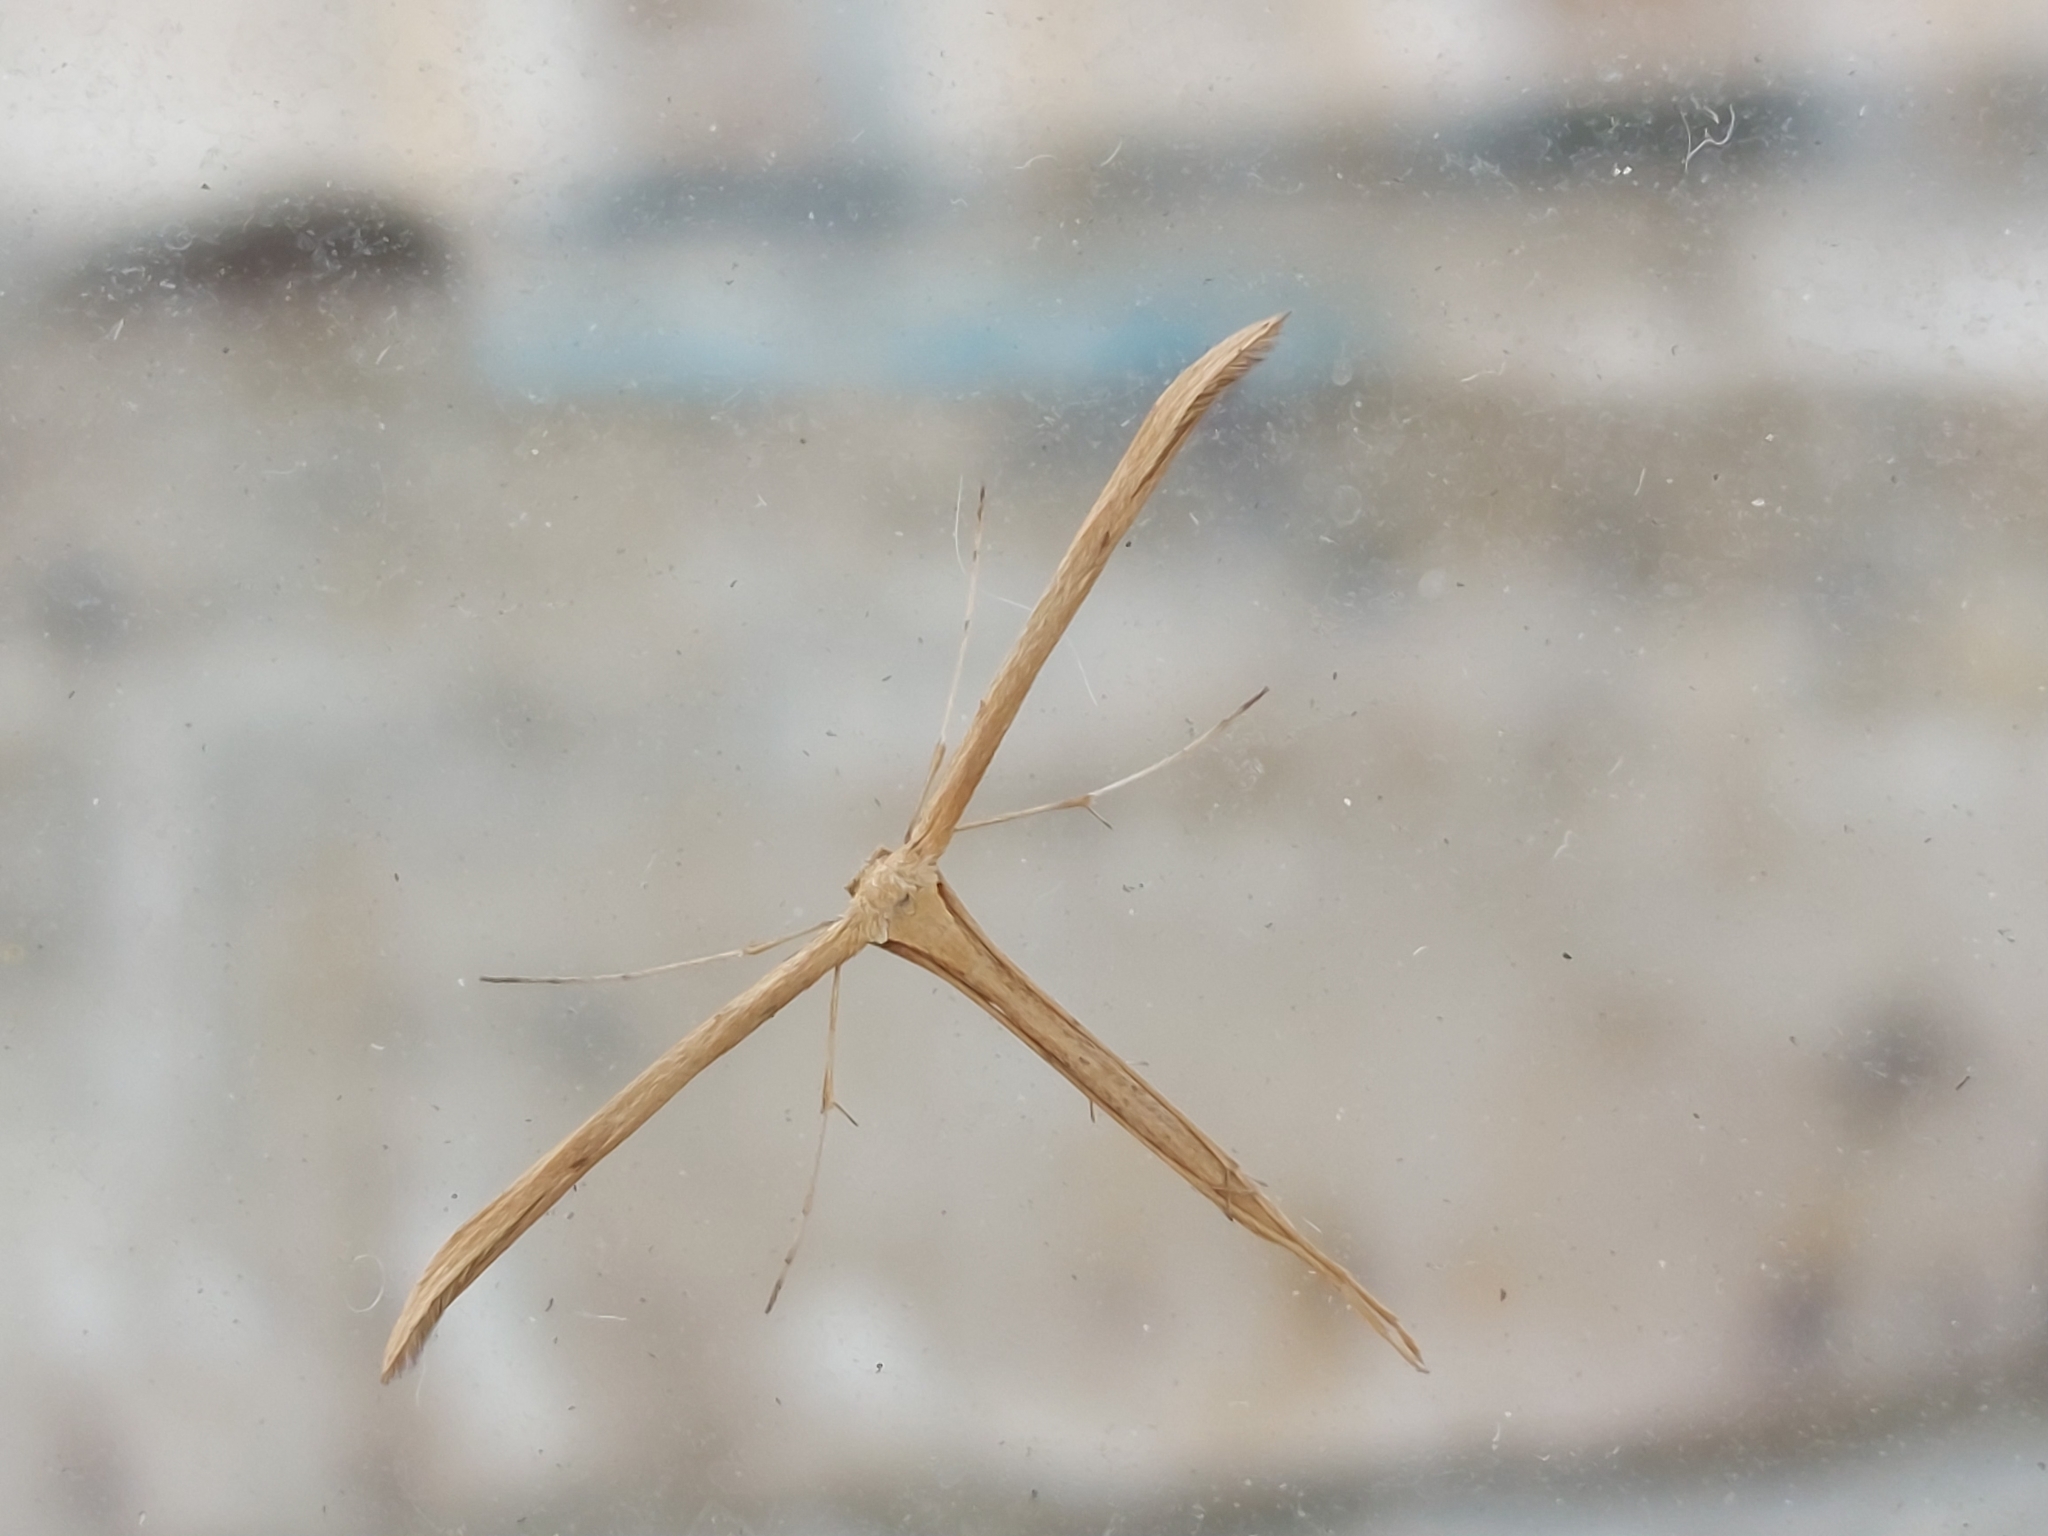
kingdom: Animalia
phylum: Arthropoda
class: Insecta
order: Lepidoptera
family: Pterophoridae
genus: Emmelina
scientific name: Emmelina monodactyla
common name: Common plume
